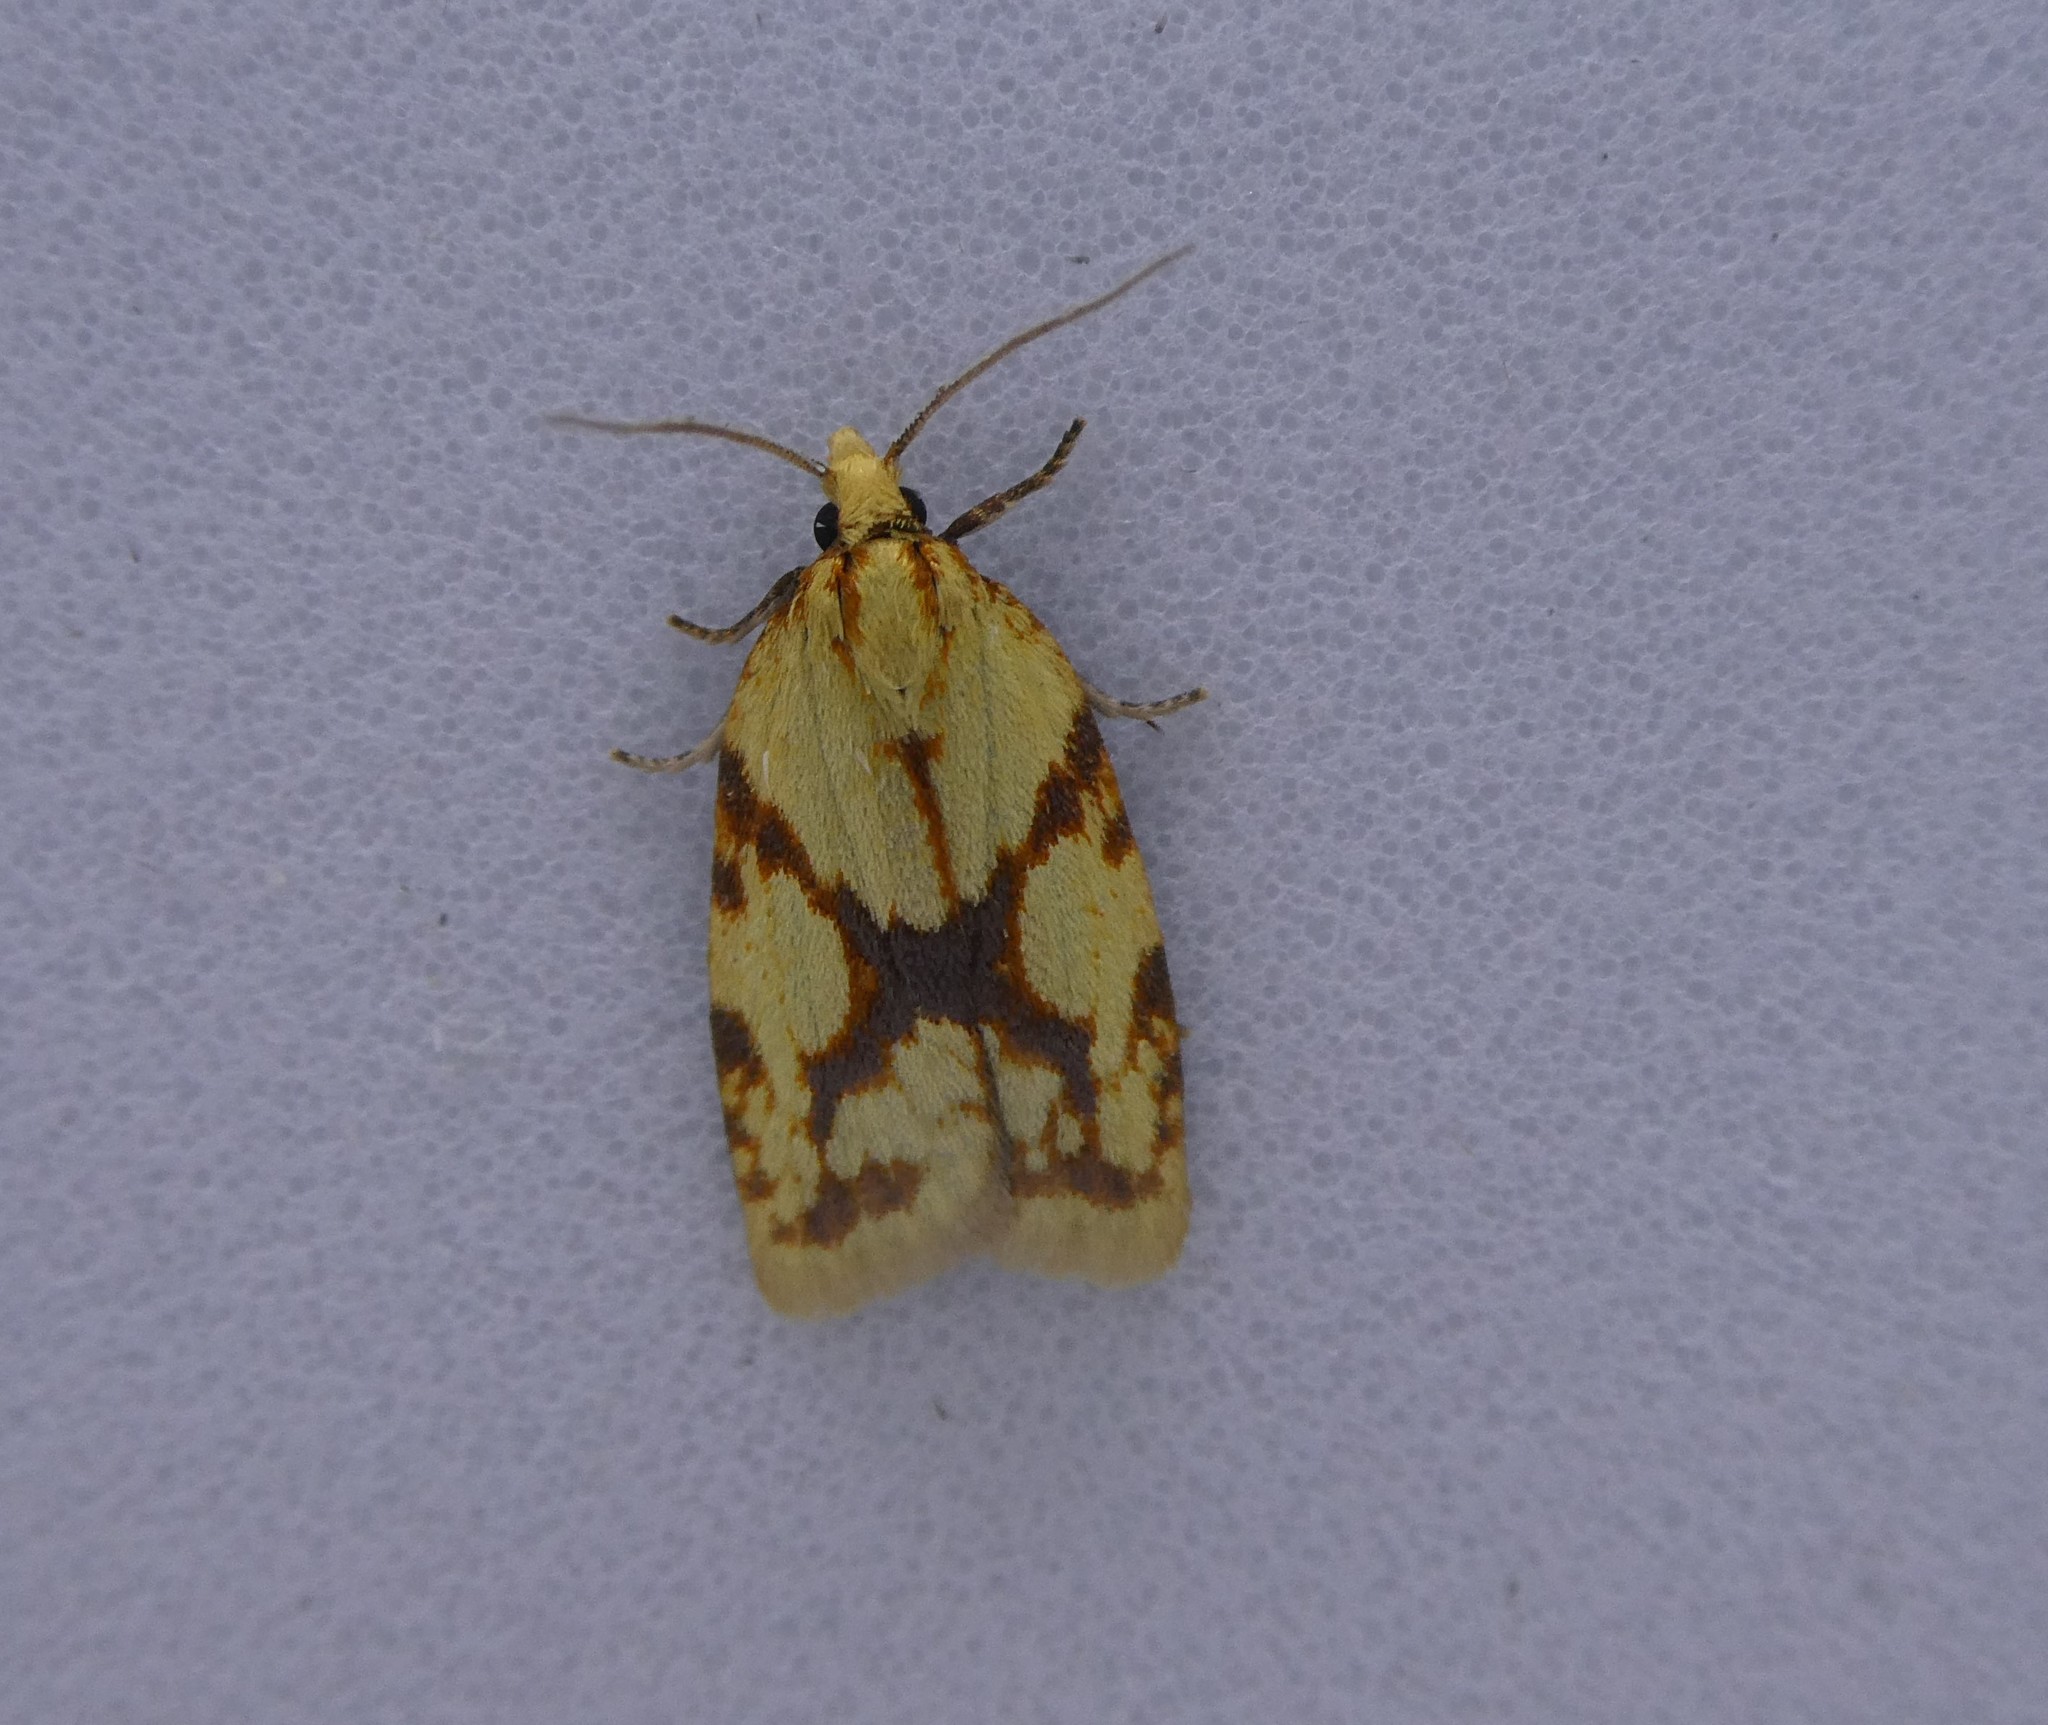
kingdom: Animalia
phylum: Arthropoda
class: Insecta
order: Lepidoptera
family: Tortricidae
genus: Sparganothis
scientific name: Sparganothis sulfureana
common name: Sparganothis fruitworm moth
